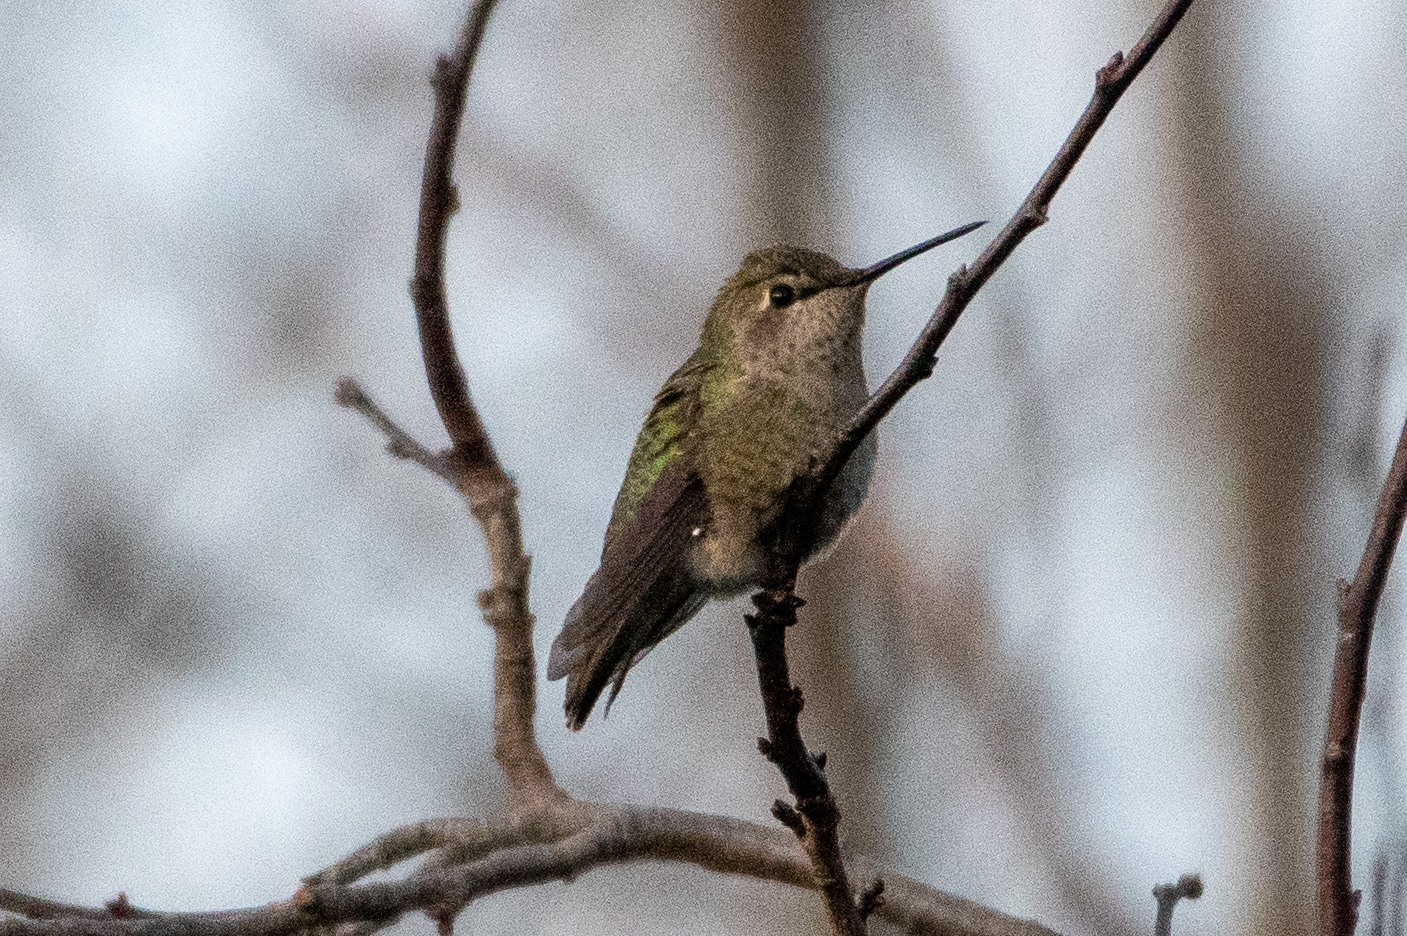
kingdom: Animalia
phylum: Chordata
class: Aves
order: Apodiformes
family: Trochilidae
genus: Calypte
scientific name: Calypte anna
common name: Anna's hummingbird
